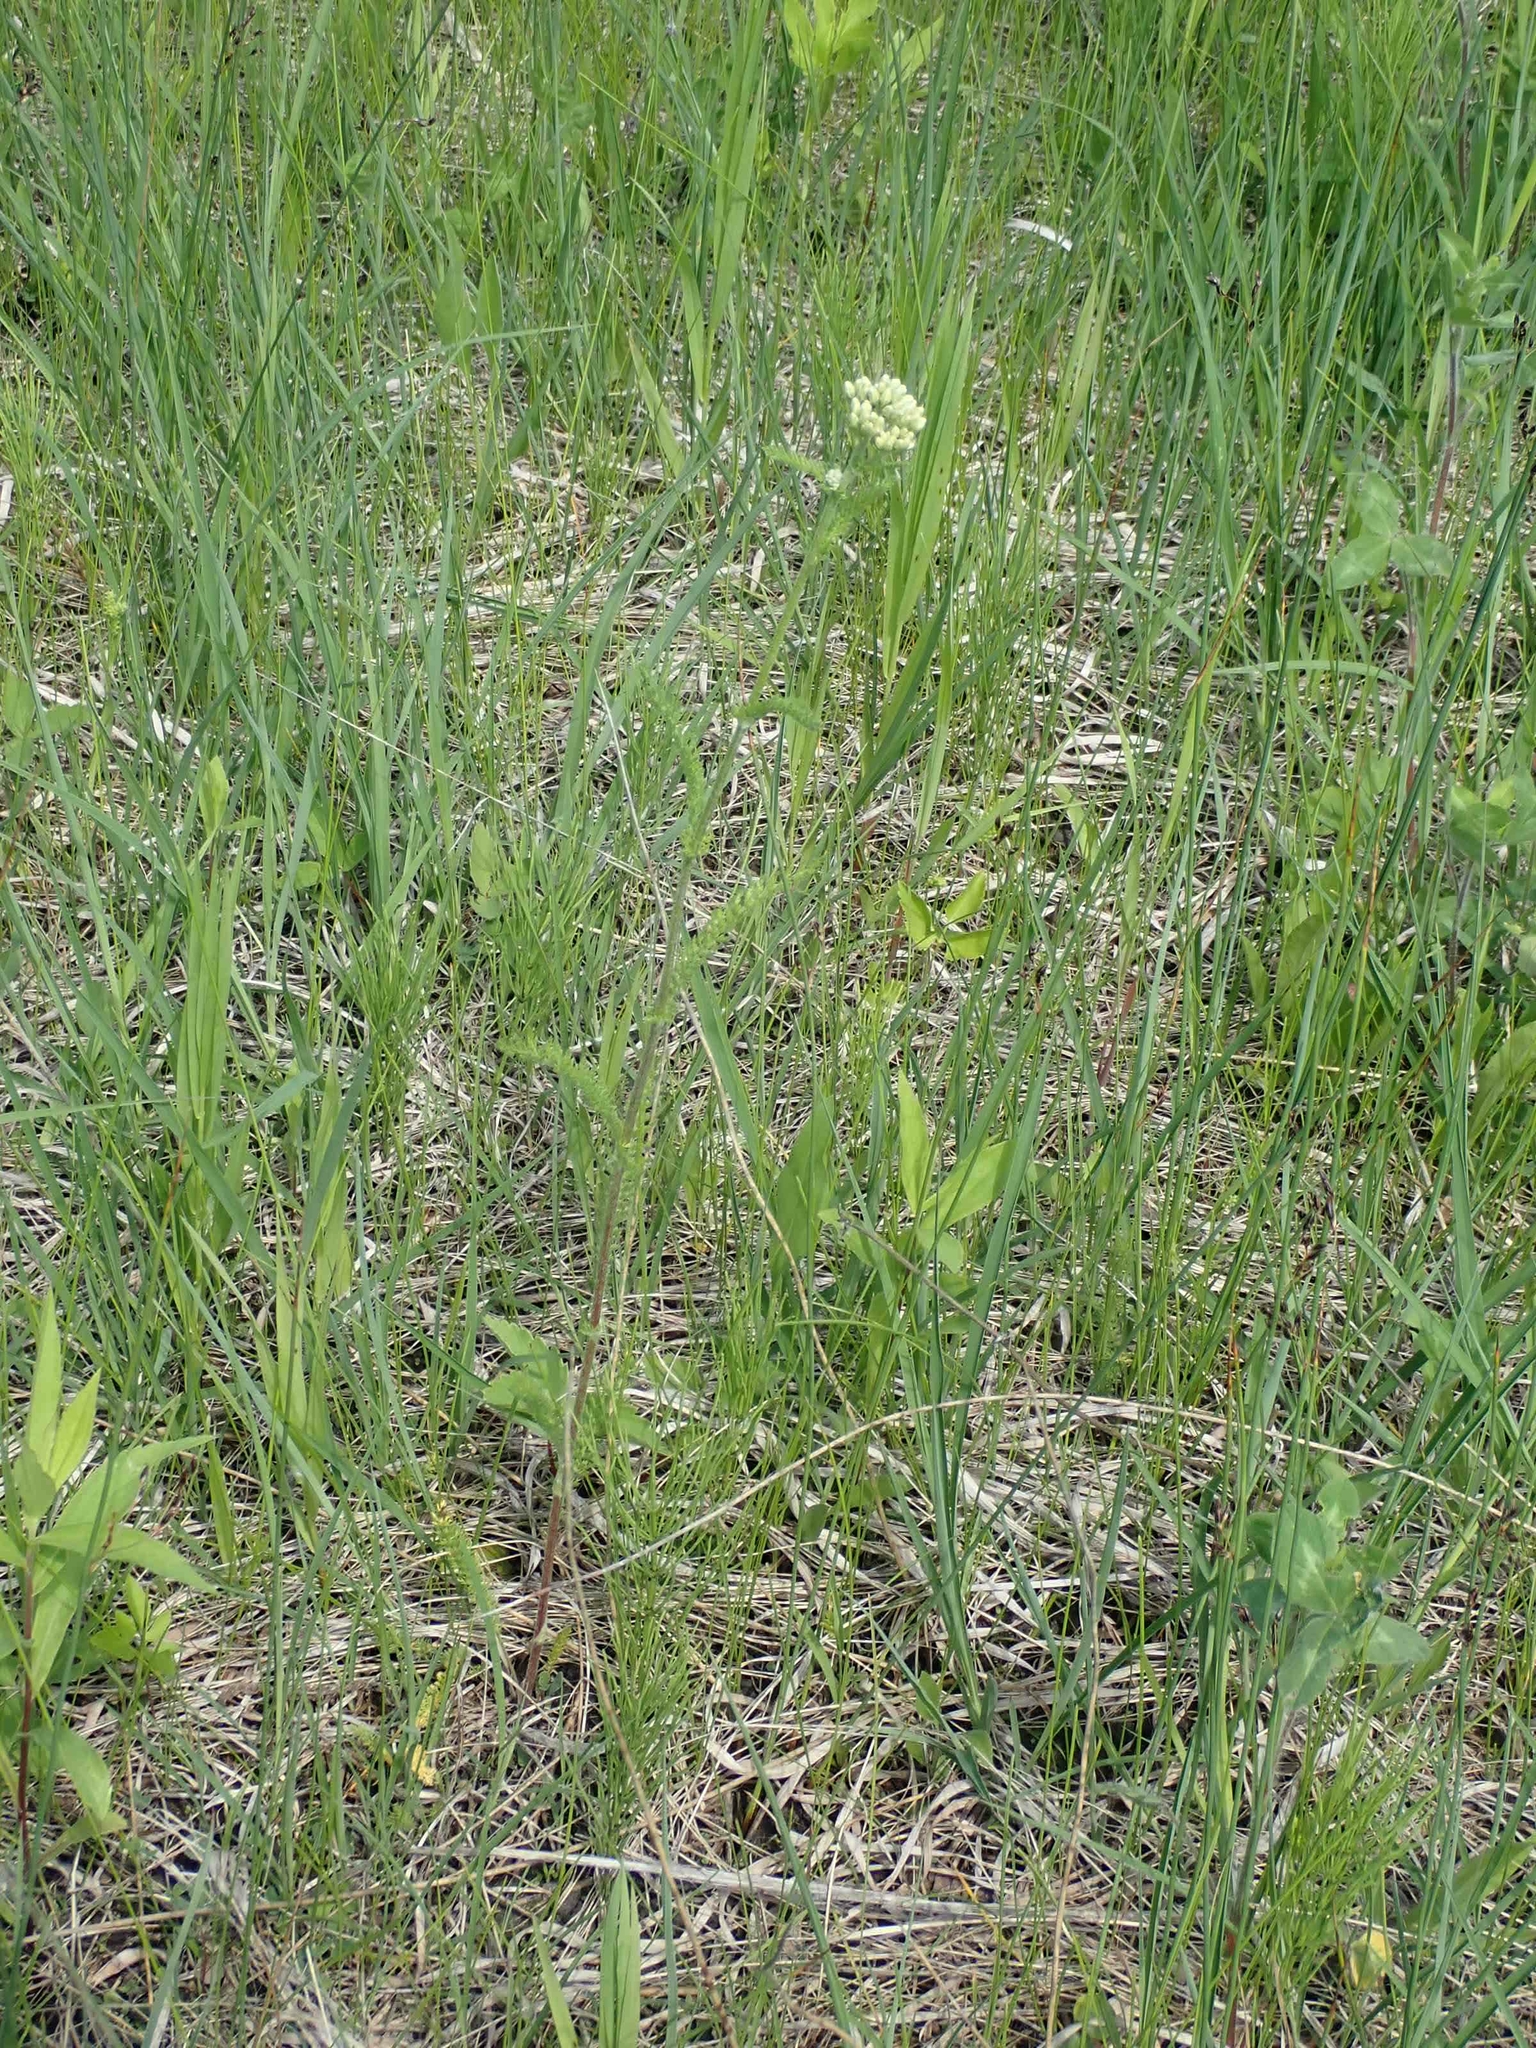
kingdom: Plantae
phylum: Tracheophyta
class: Magnoliopsida
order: Asterales
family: Asteraceae
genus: Achillea
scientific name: Achillea millefolium
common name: Yarrow
